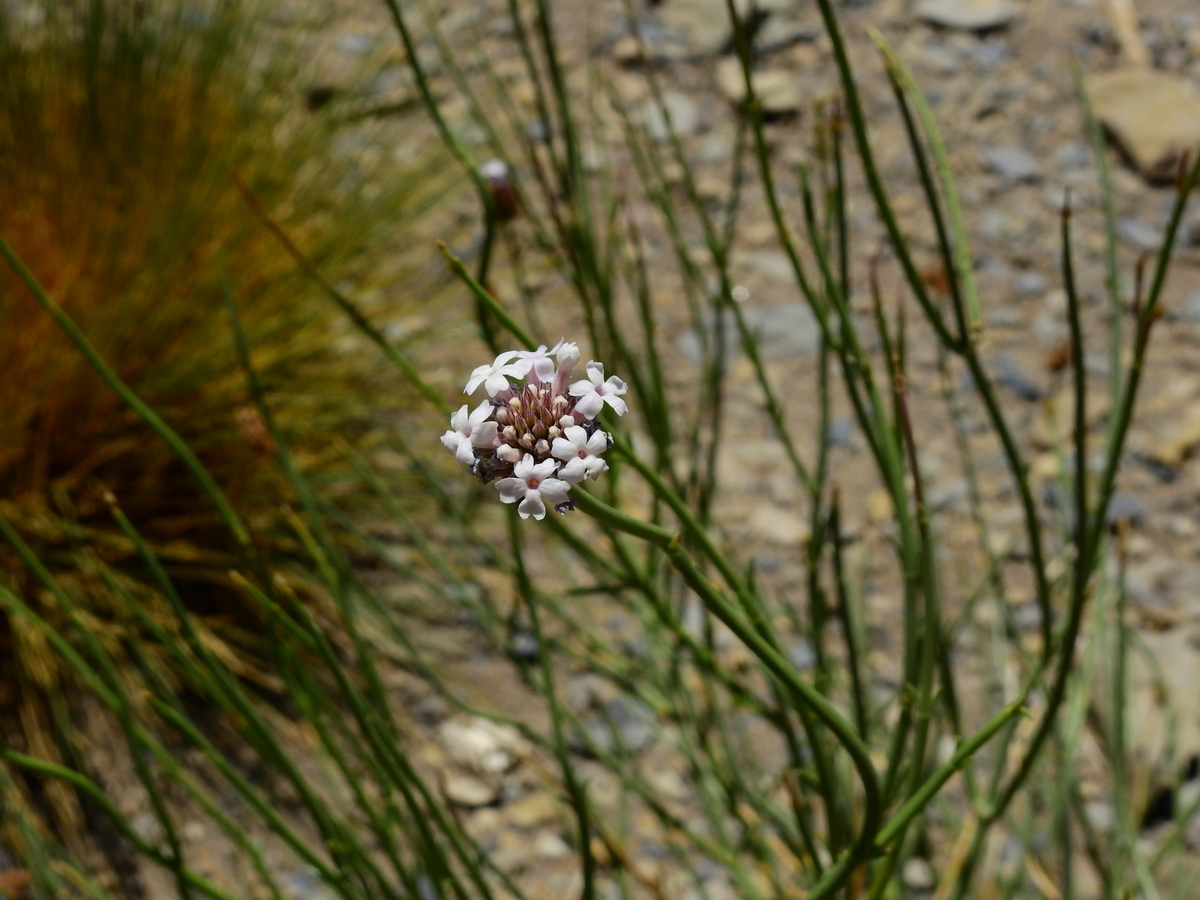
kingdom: Plantae
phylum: Tracheophyta
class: Magnoliopsida
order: Lamiales
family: Verbenaceae
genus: Junellia
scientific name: Junellia spathulata
